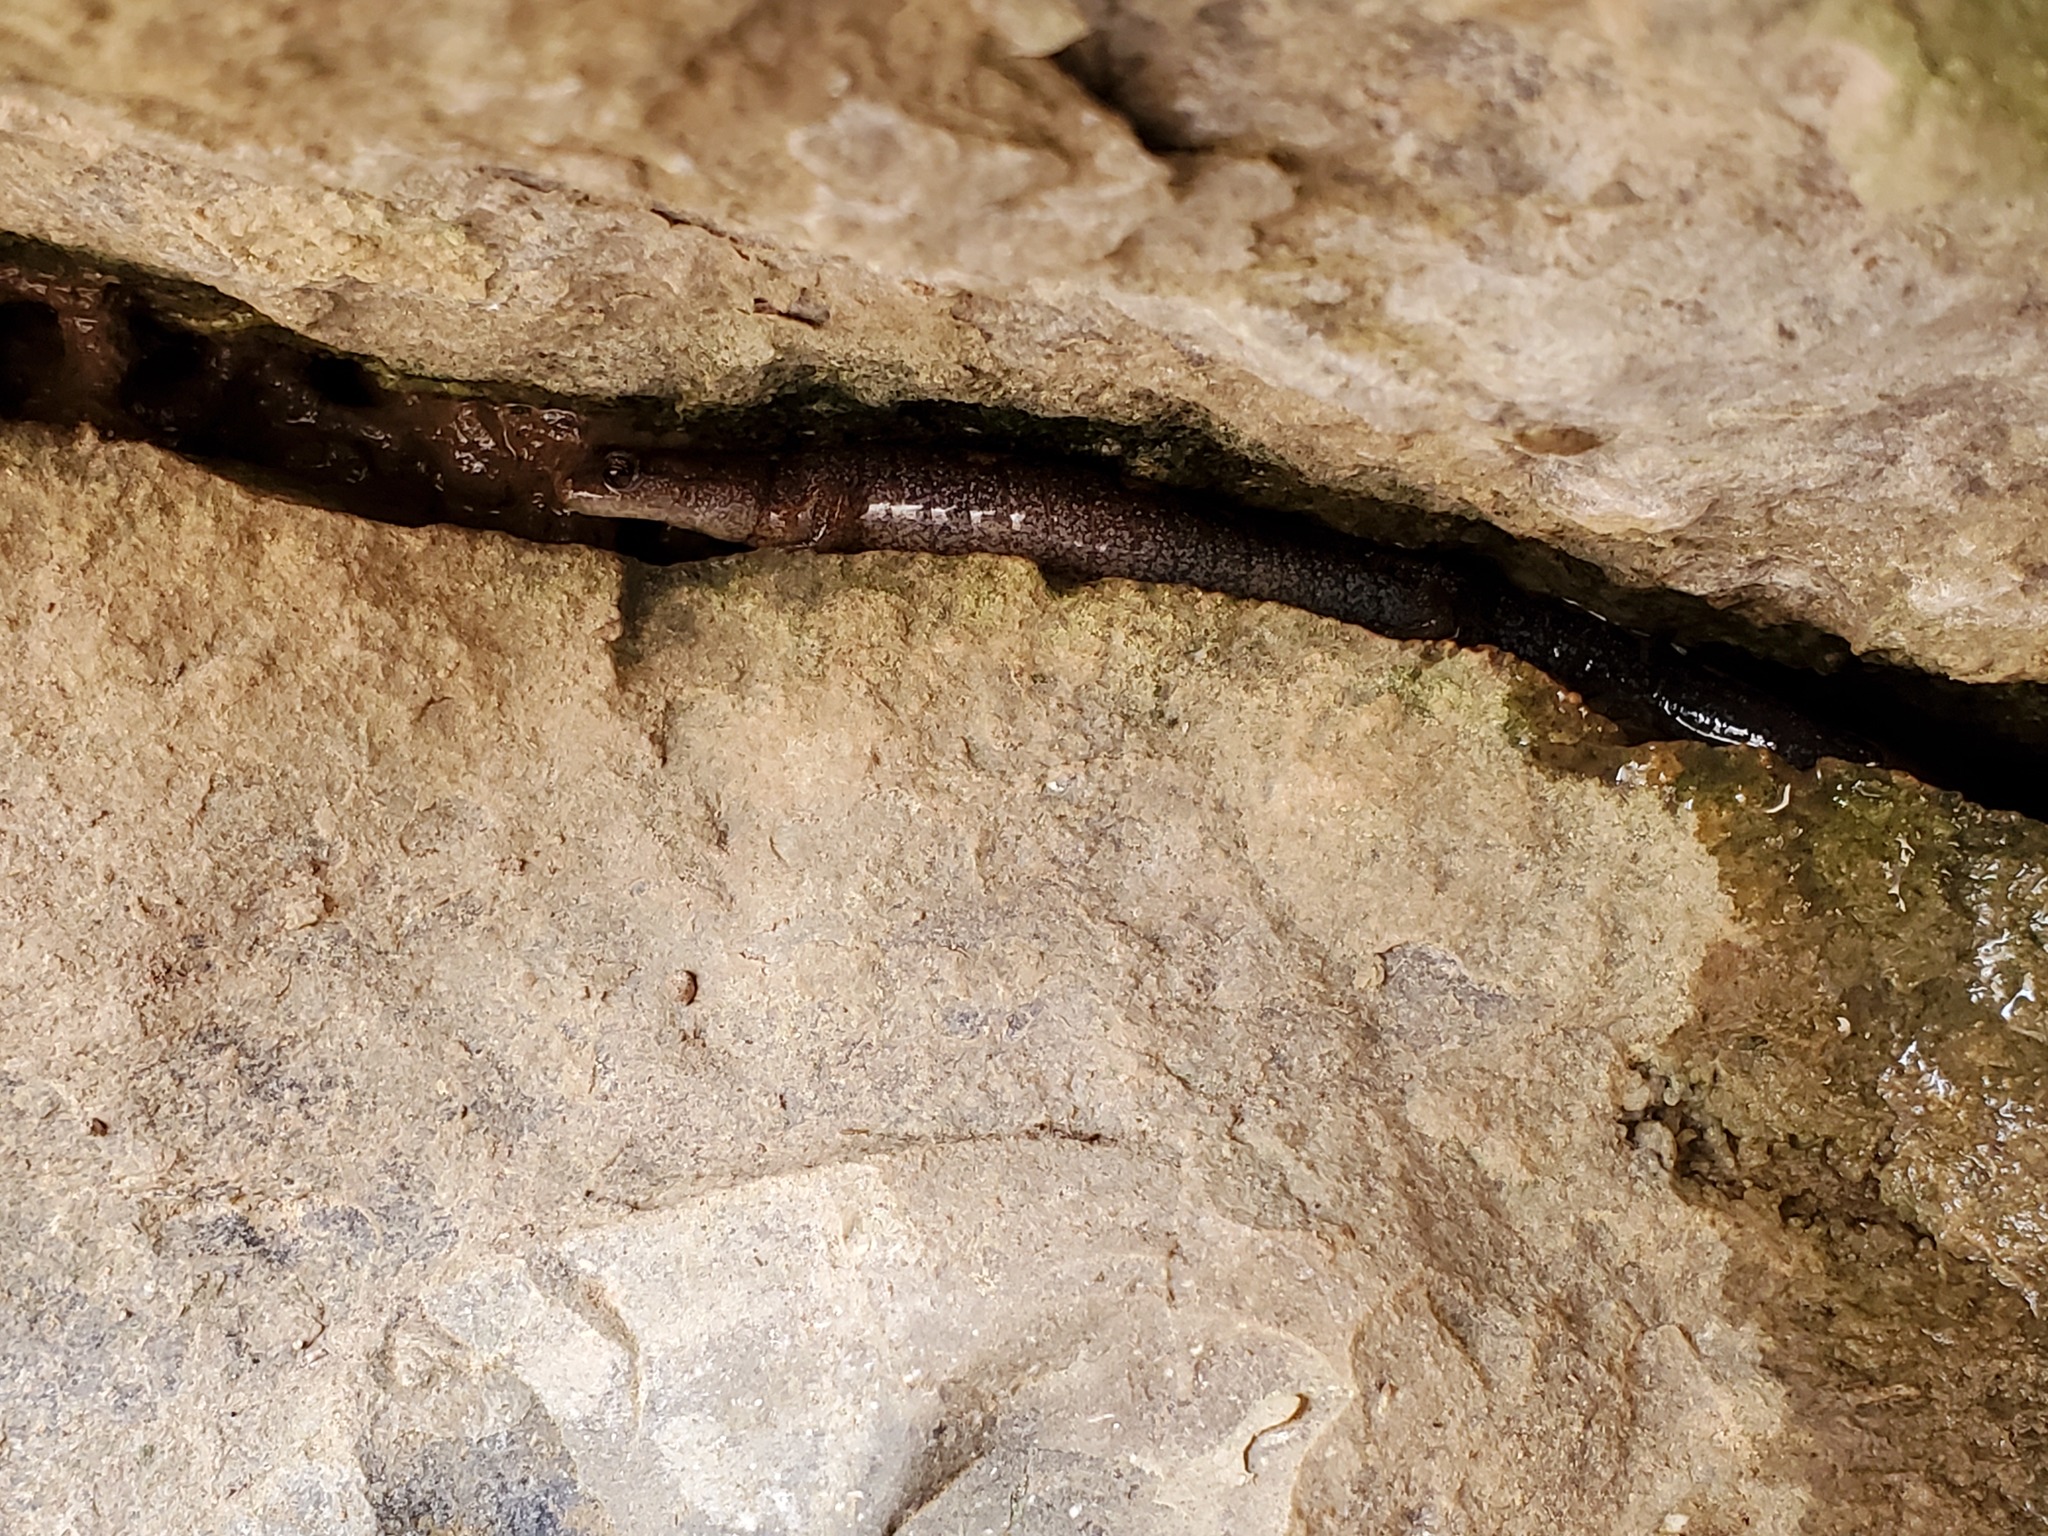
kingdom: Animalia
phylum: Chordata
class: Amphibia
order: Caudata
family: Plethodontidae
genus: Plethodon
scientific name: Plethodon dorsalis
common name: Northern zigzag salamander
